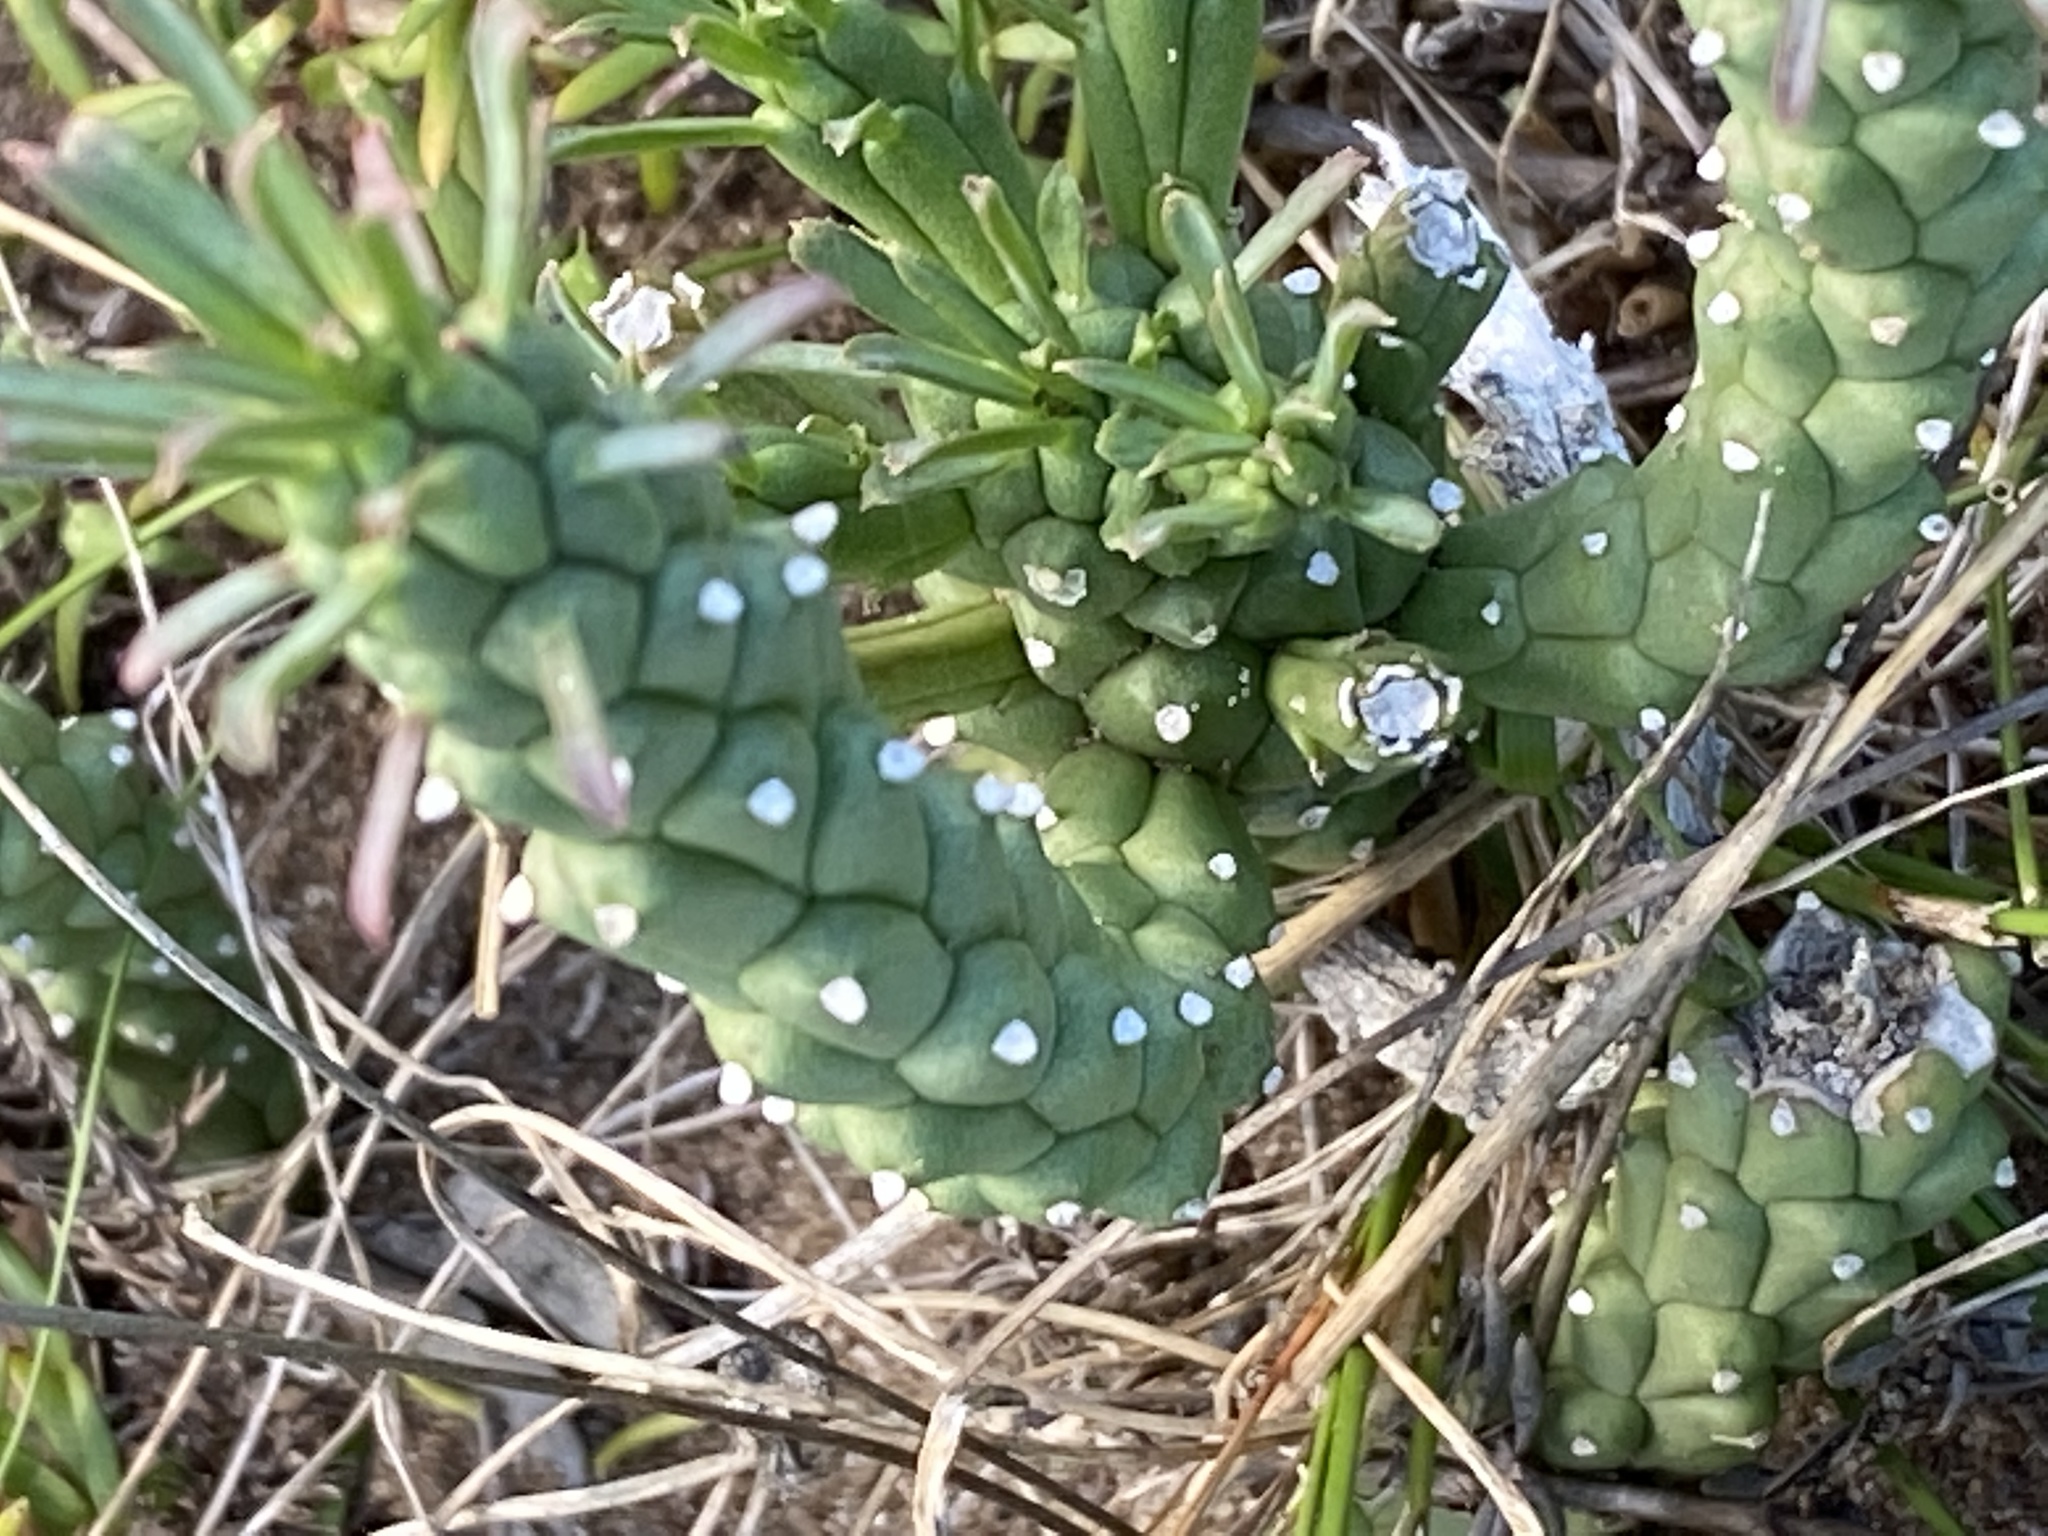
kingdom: Plantae
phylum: Tracheophyta
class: Magnoliopsida
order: Malpighiales
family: Euphorbiaceae
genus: Euphorbia
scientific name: Euphorbia caput-medusae
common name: Medusa's-head
